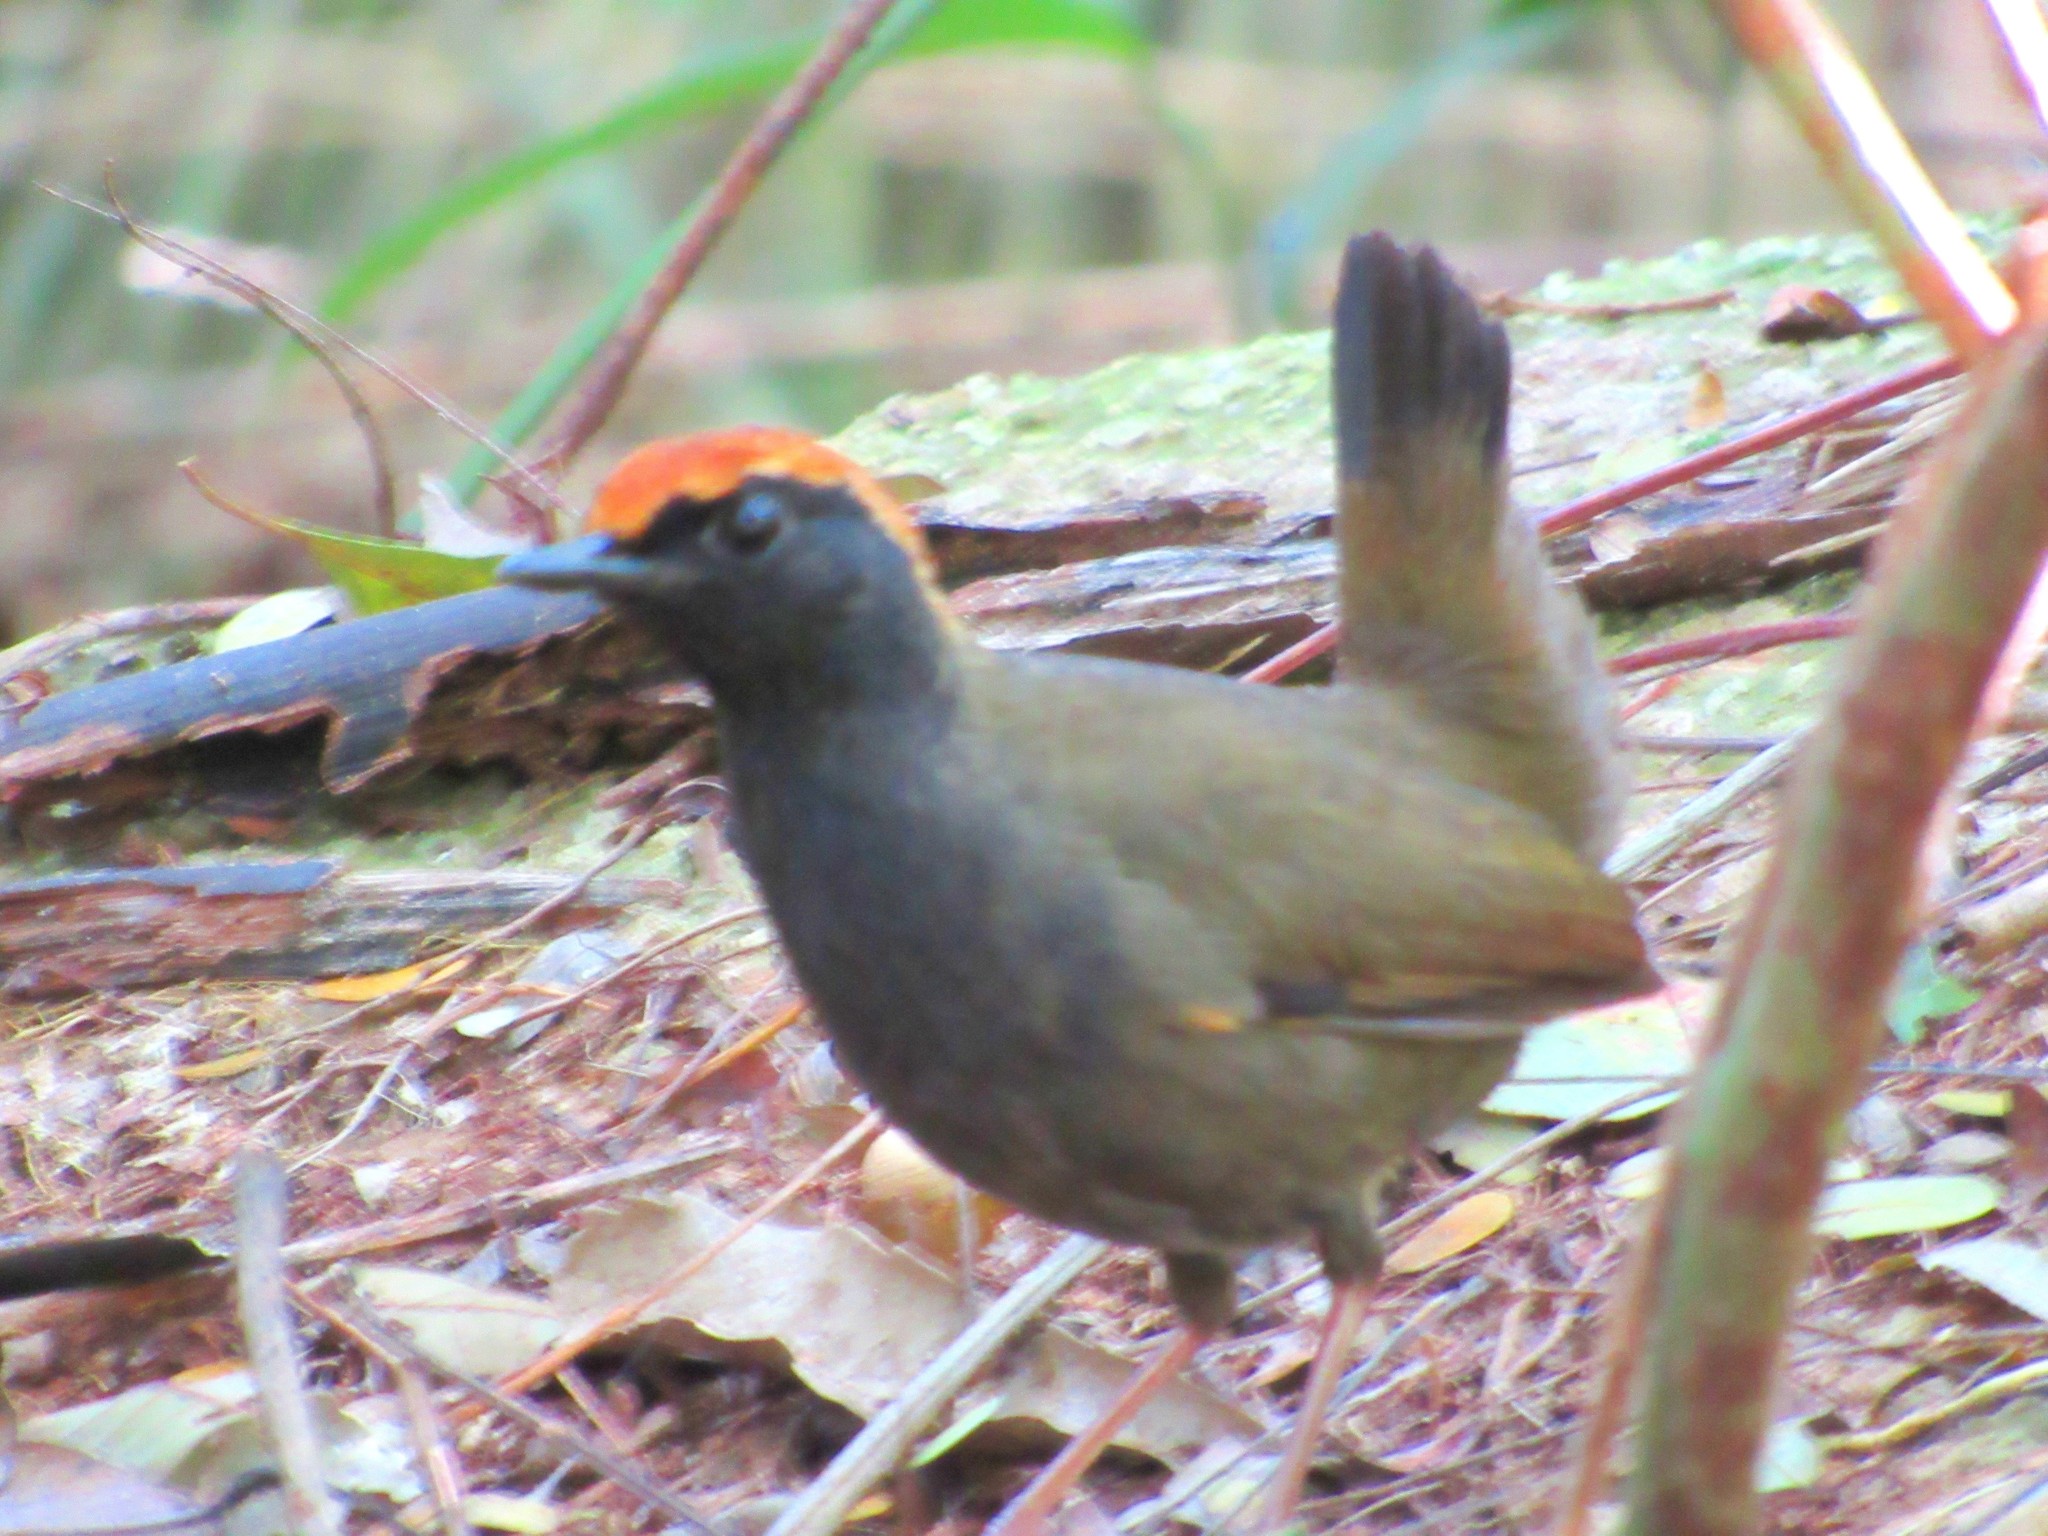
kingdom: Animalia
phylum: Chordata
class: Aves
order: Passeriformes
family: Formicariidae
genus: Formicarius
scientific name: Formicarius colma
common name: Rufous-capped antthrush
